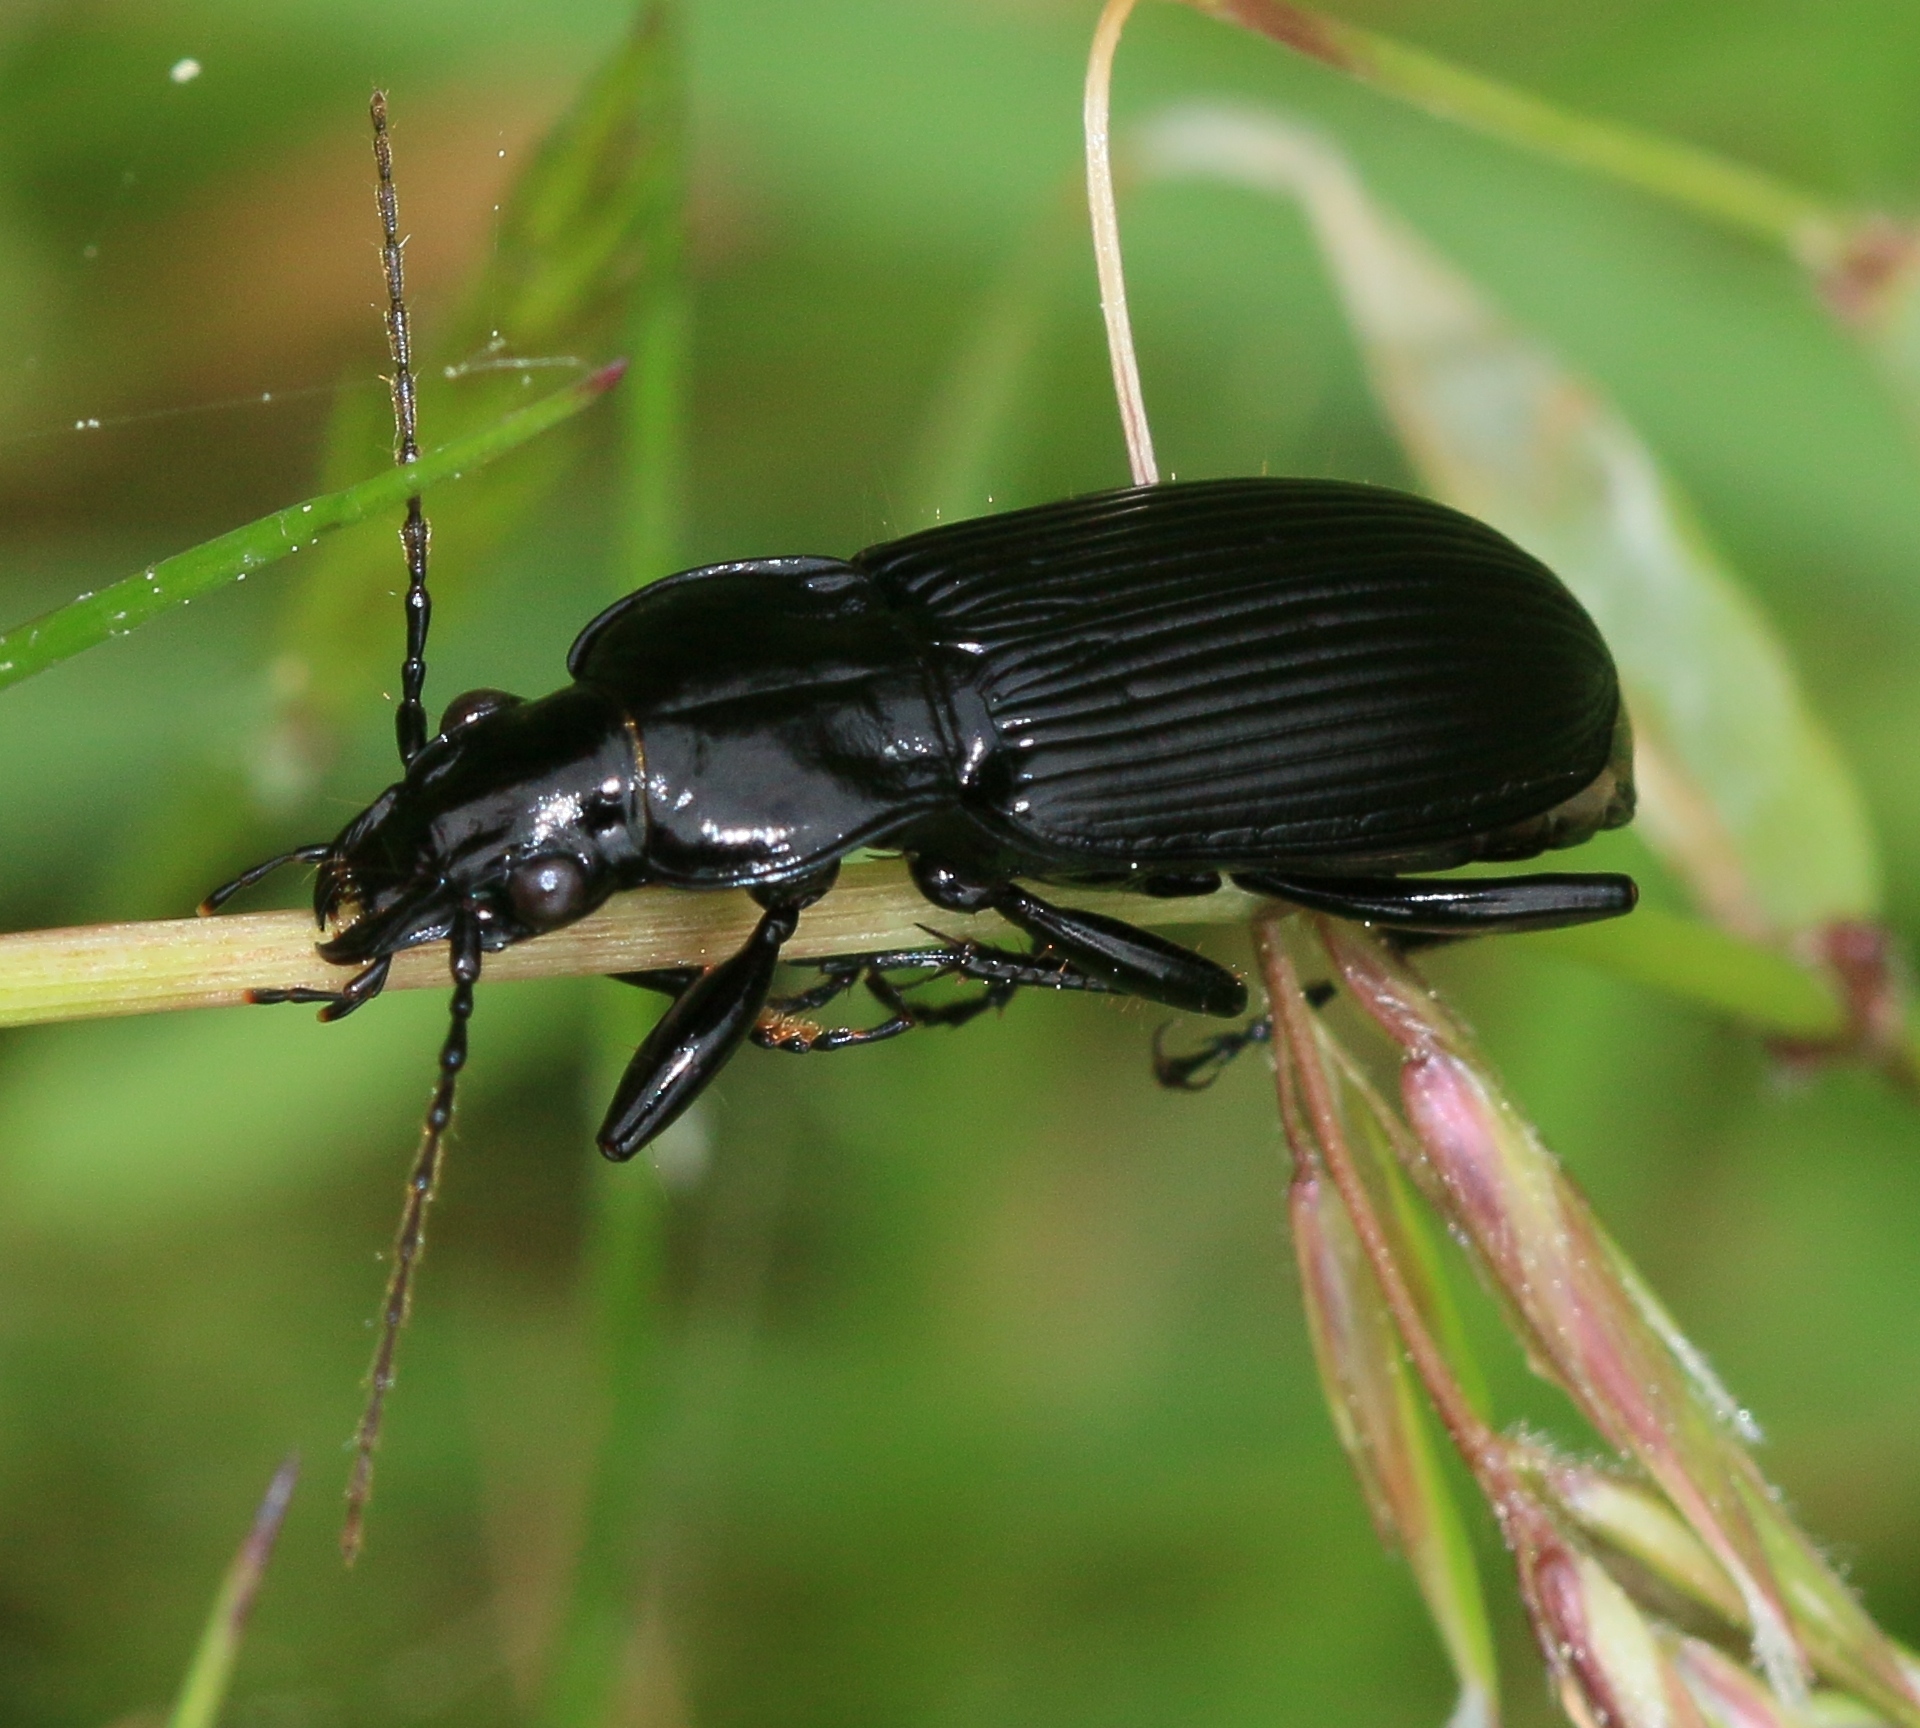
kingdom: Animalia
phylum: Arthropoda
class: Insecta
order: Coleoptera
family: Carabidae
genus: Pterostichus
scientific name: Pterostichus niger
